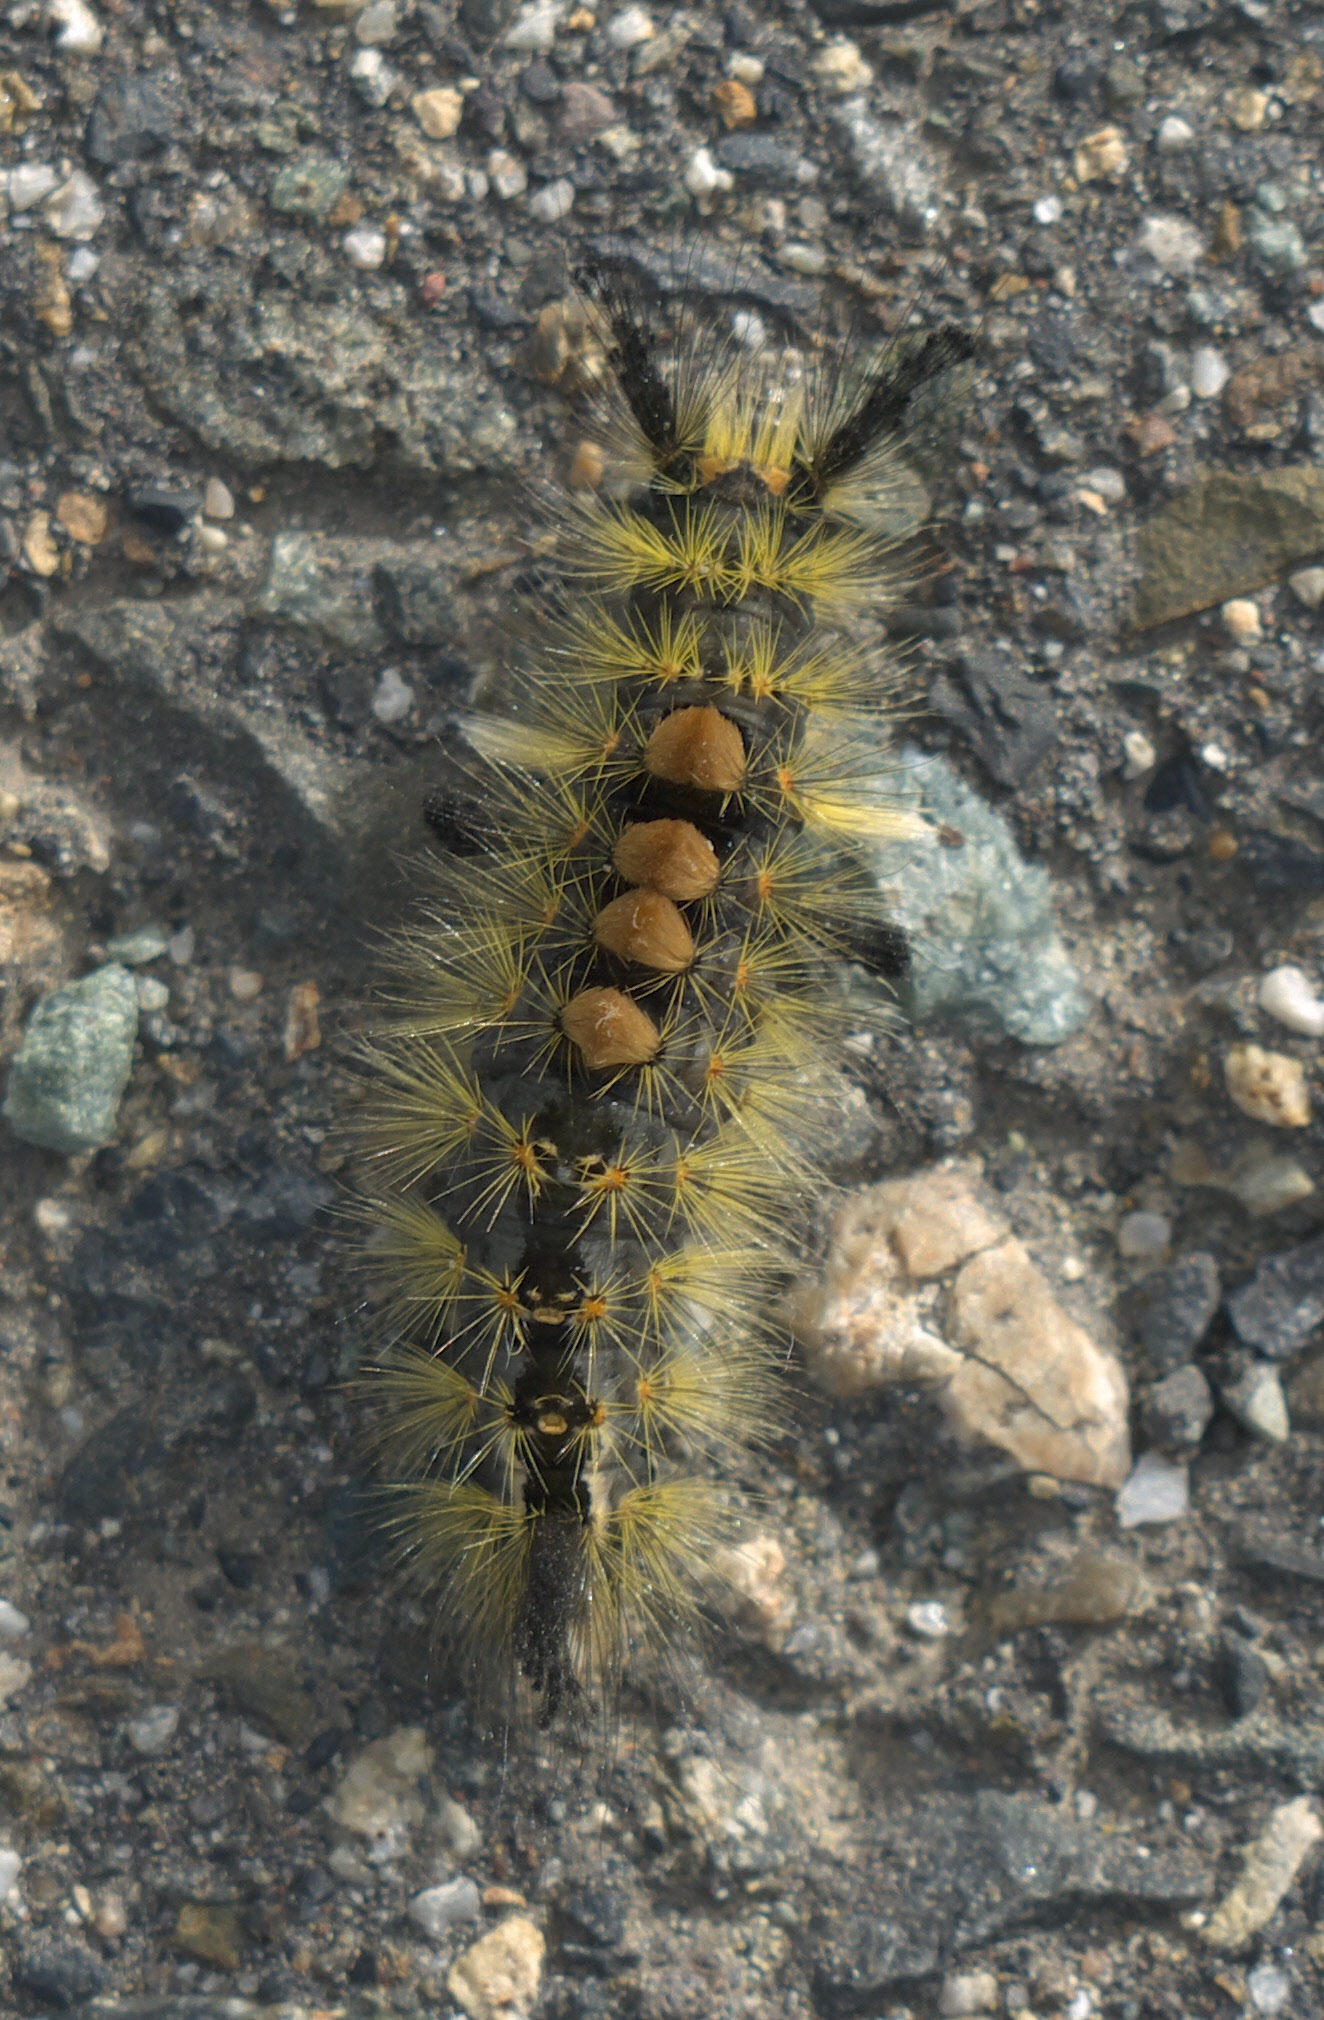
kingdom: Animalia
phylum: Arthropoda
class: Insecta
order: Lepidoptera
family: Erebidae
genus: Orgyia
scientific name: Orgyia antiqua
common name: Vapourer
